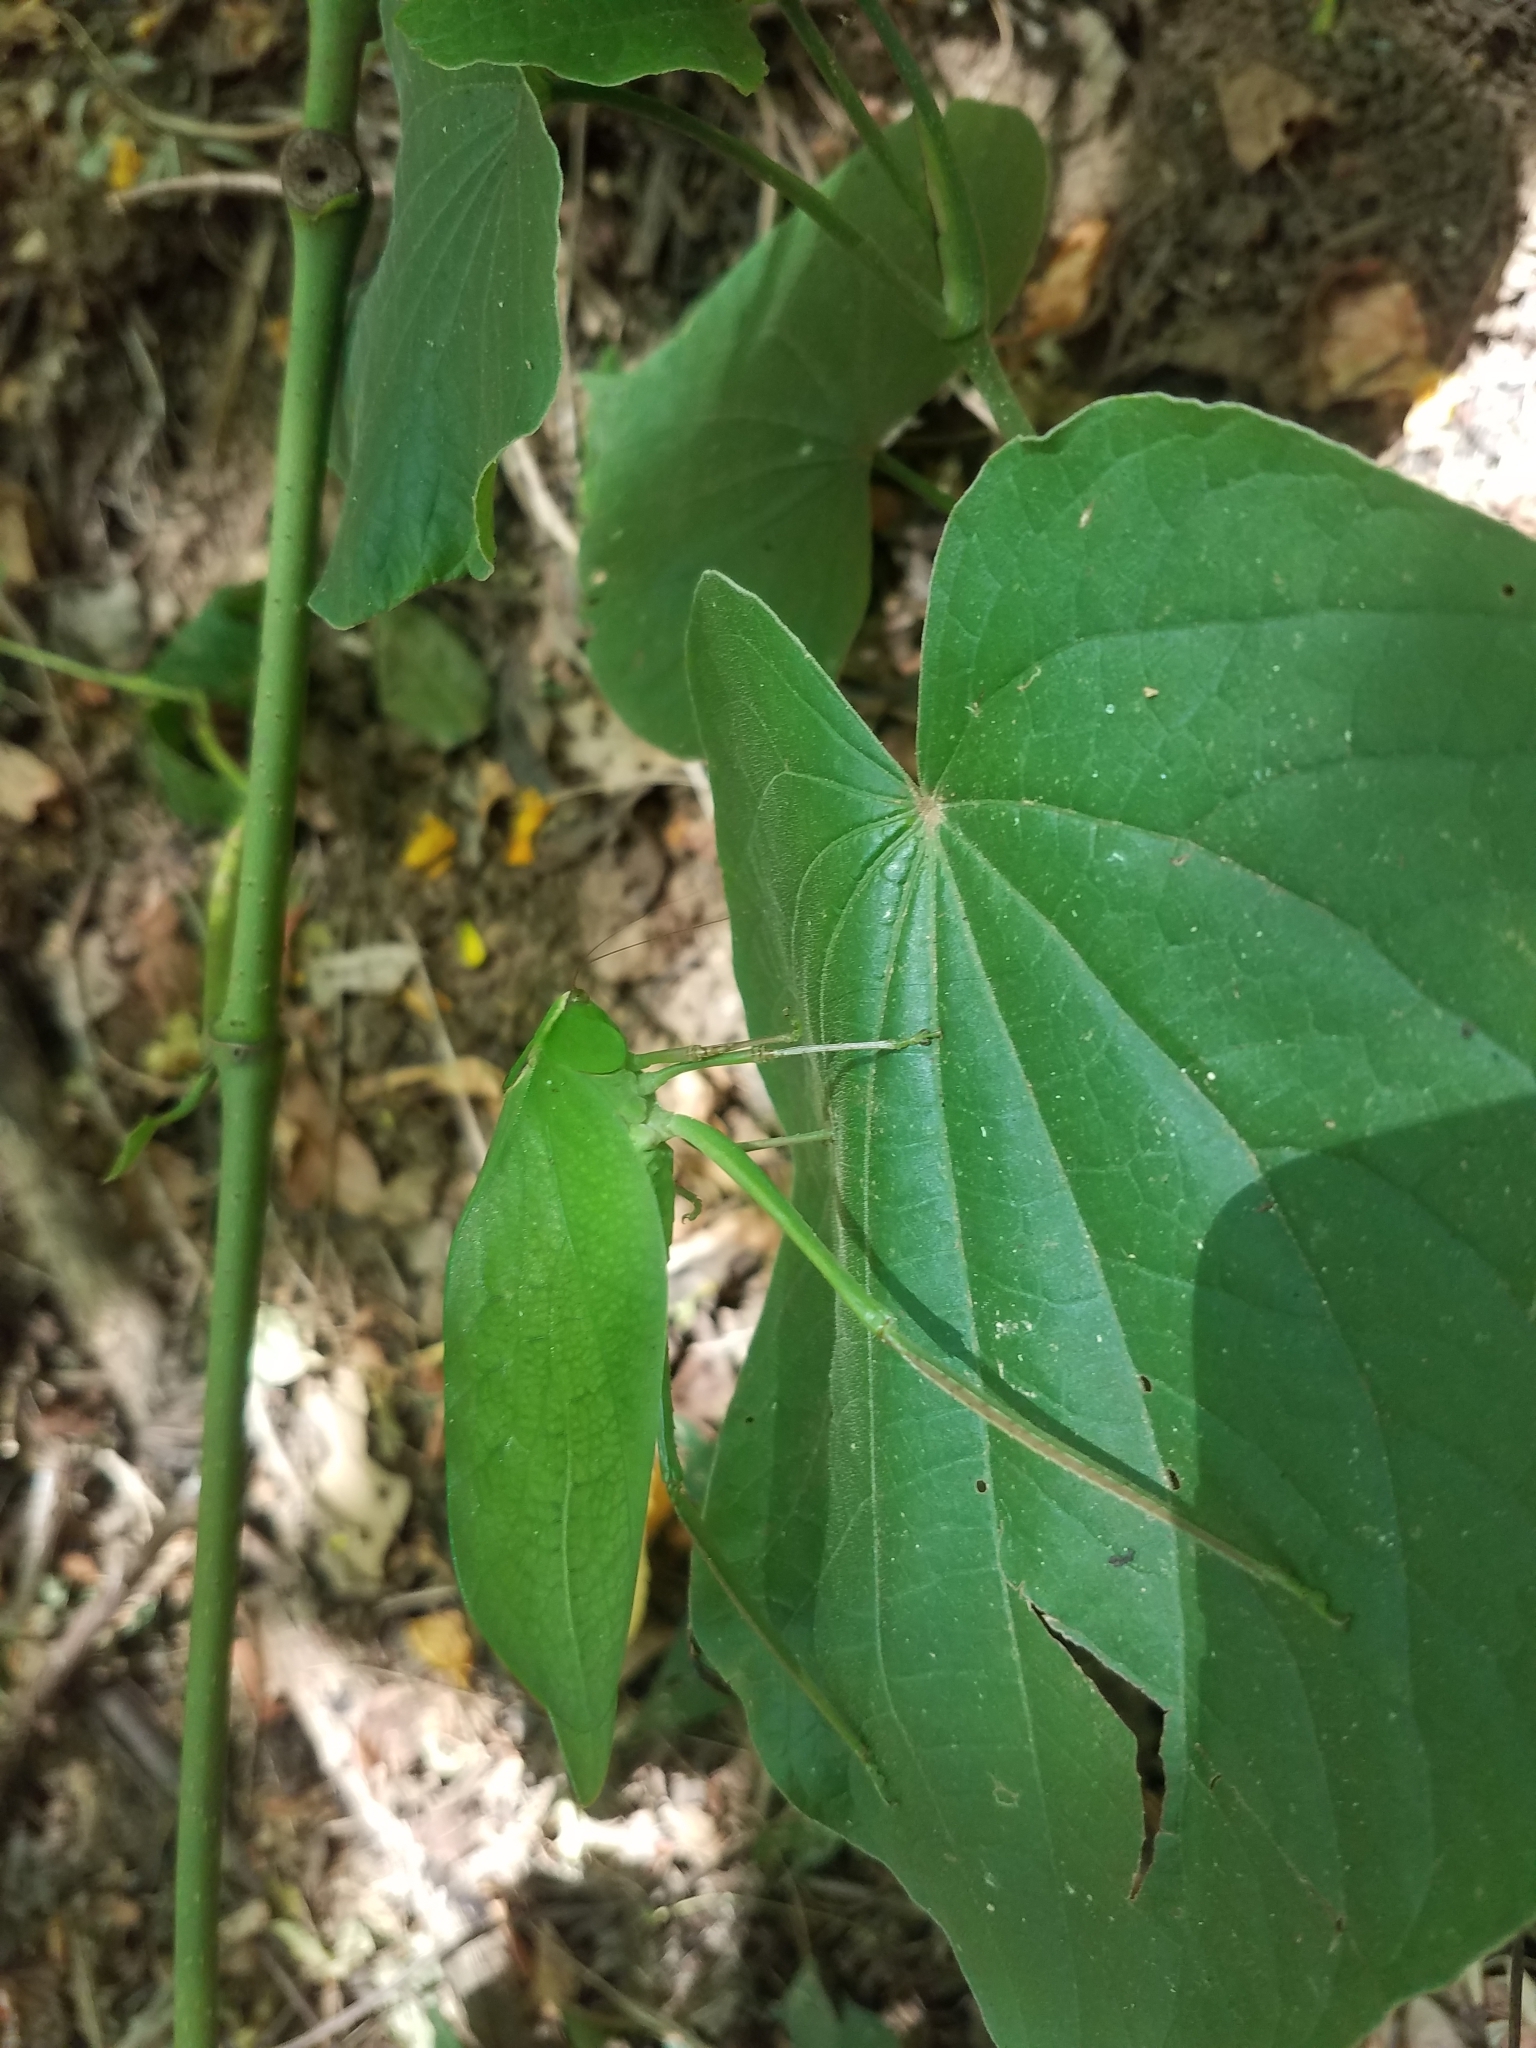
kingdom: Animalia
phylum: Arthropoda
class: Insecta
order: Orthoptera
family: Tettigoniidae
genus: Stilpnochlora
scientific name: Stilpnochlora quadrata
